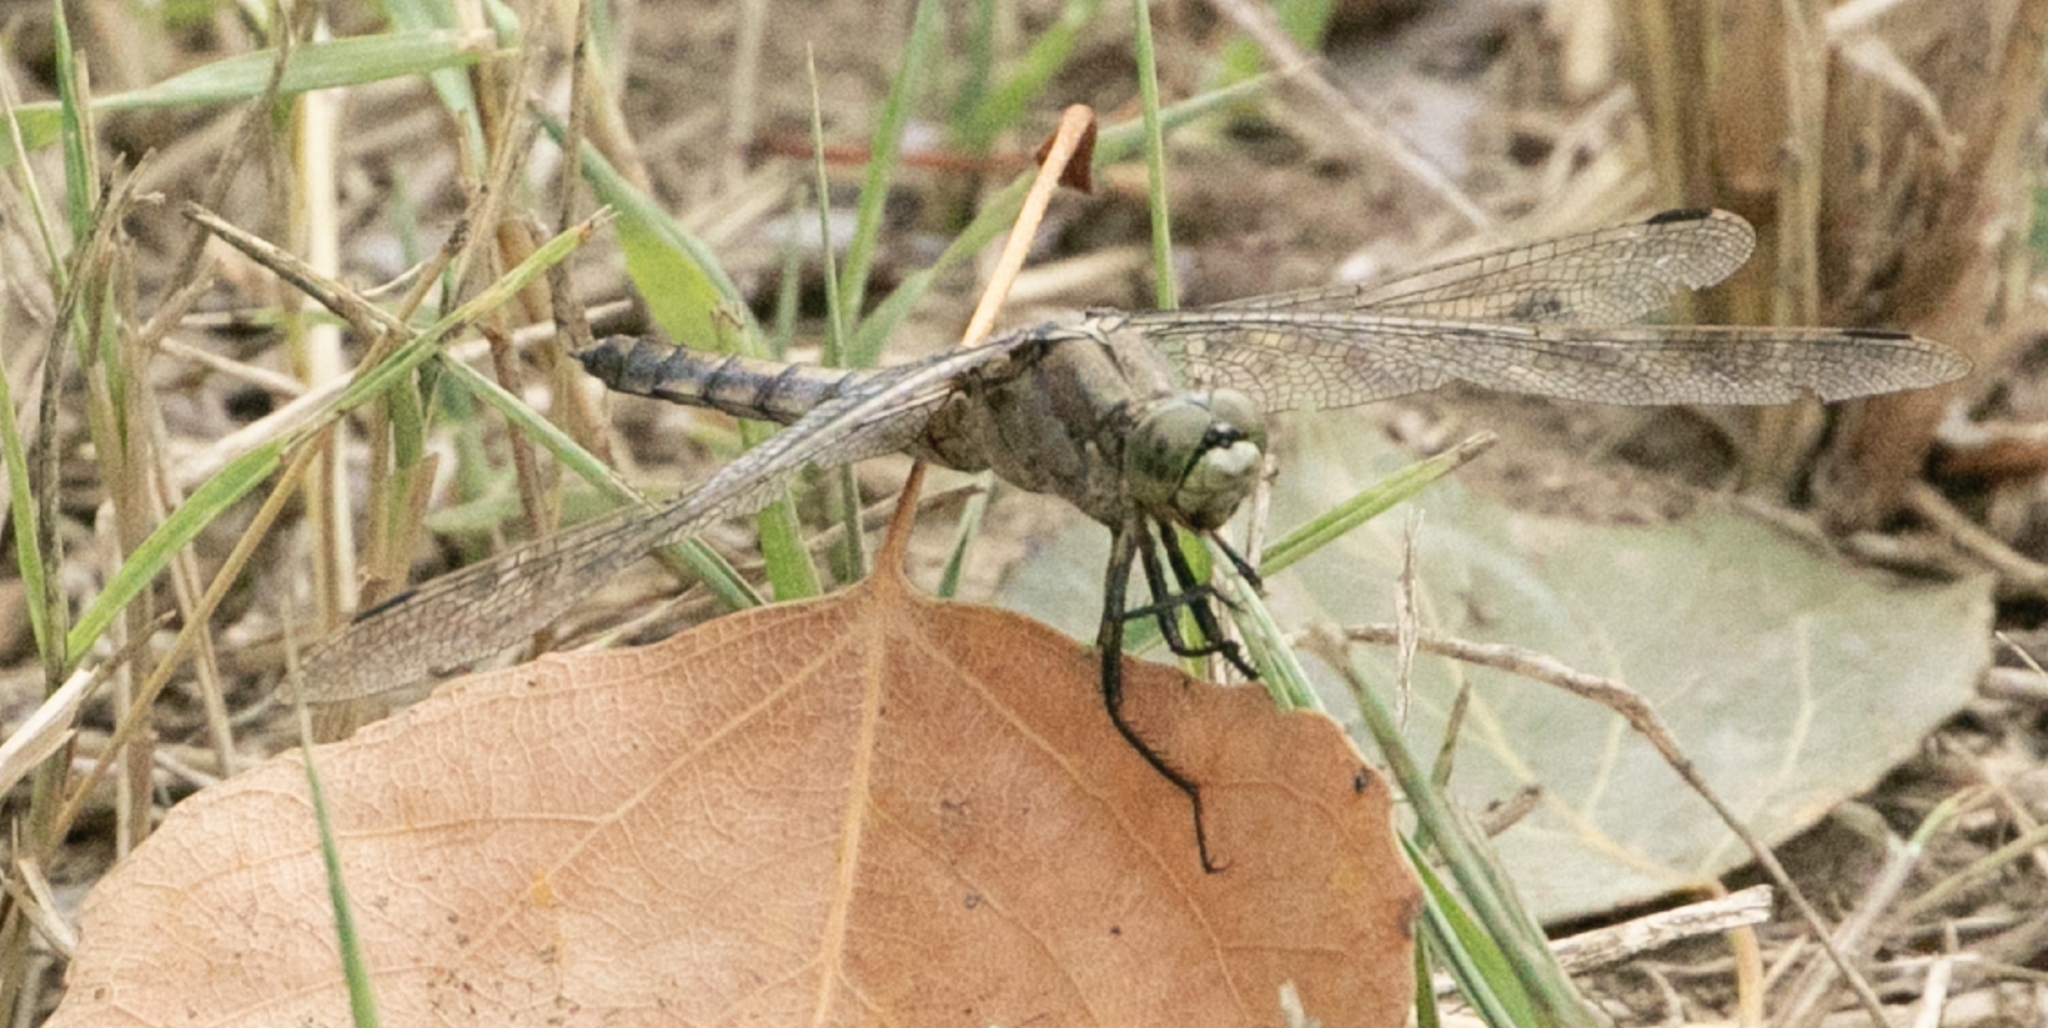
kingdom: Animalia
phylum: Arthropoda
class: Insecta
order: Odonata
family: Libellulidae
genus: Orthetrum
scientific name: Orthetrum cancellatum
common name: Black-tailed skimmer
